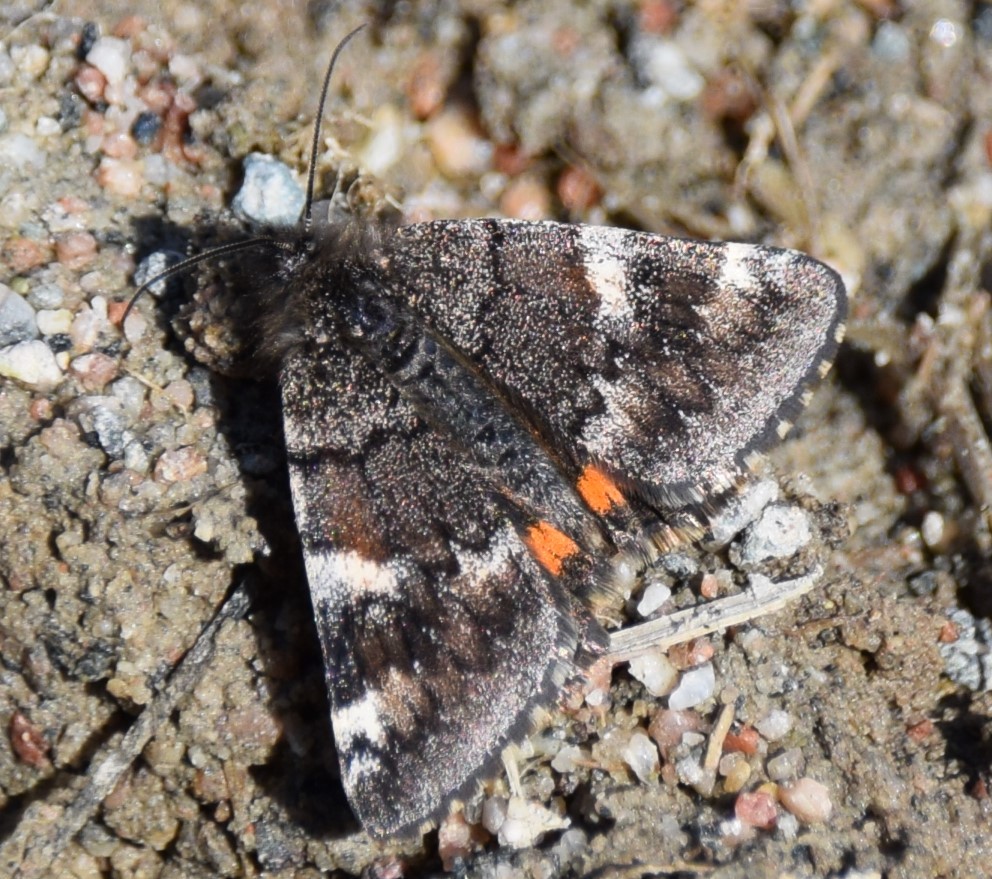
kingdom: Animalia
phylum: Arthropoda
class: Insecta
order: Lepidoptera
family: Geometridae
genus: Archiearis
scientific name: Archiearis infans
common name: First born geometer
